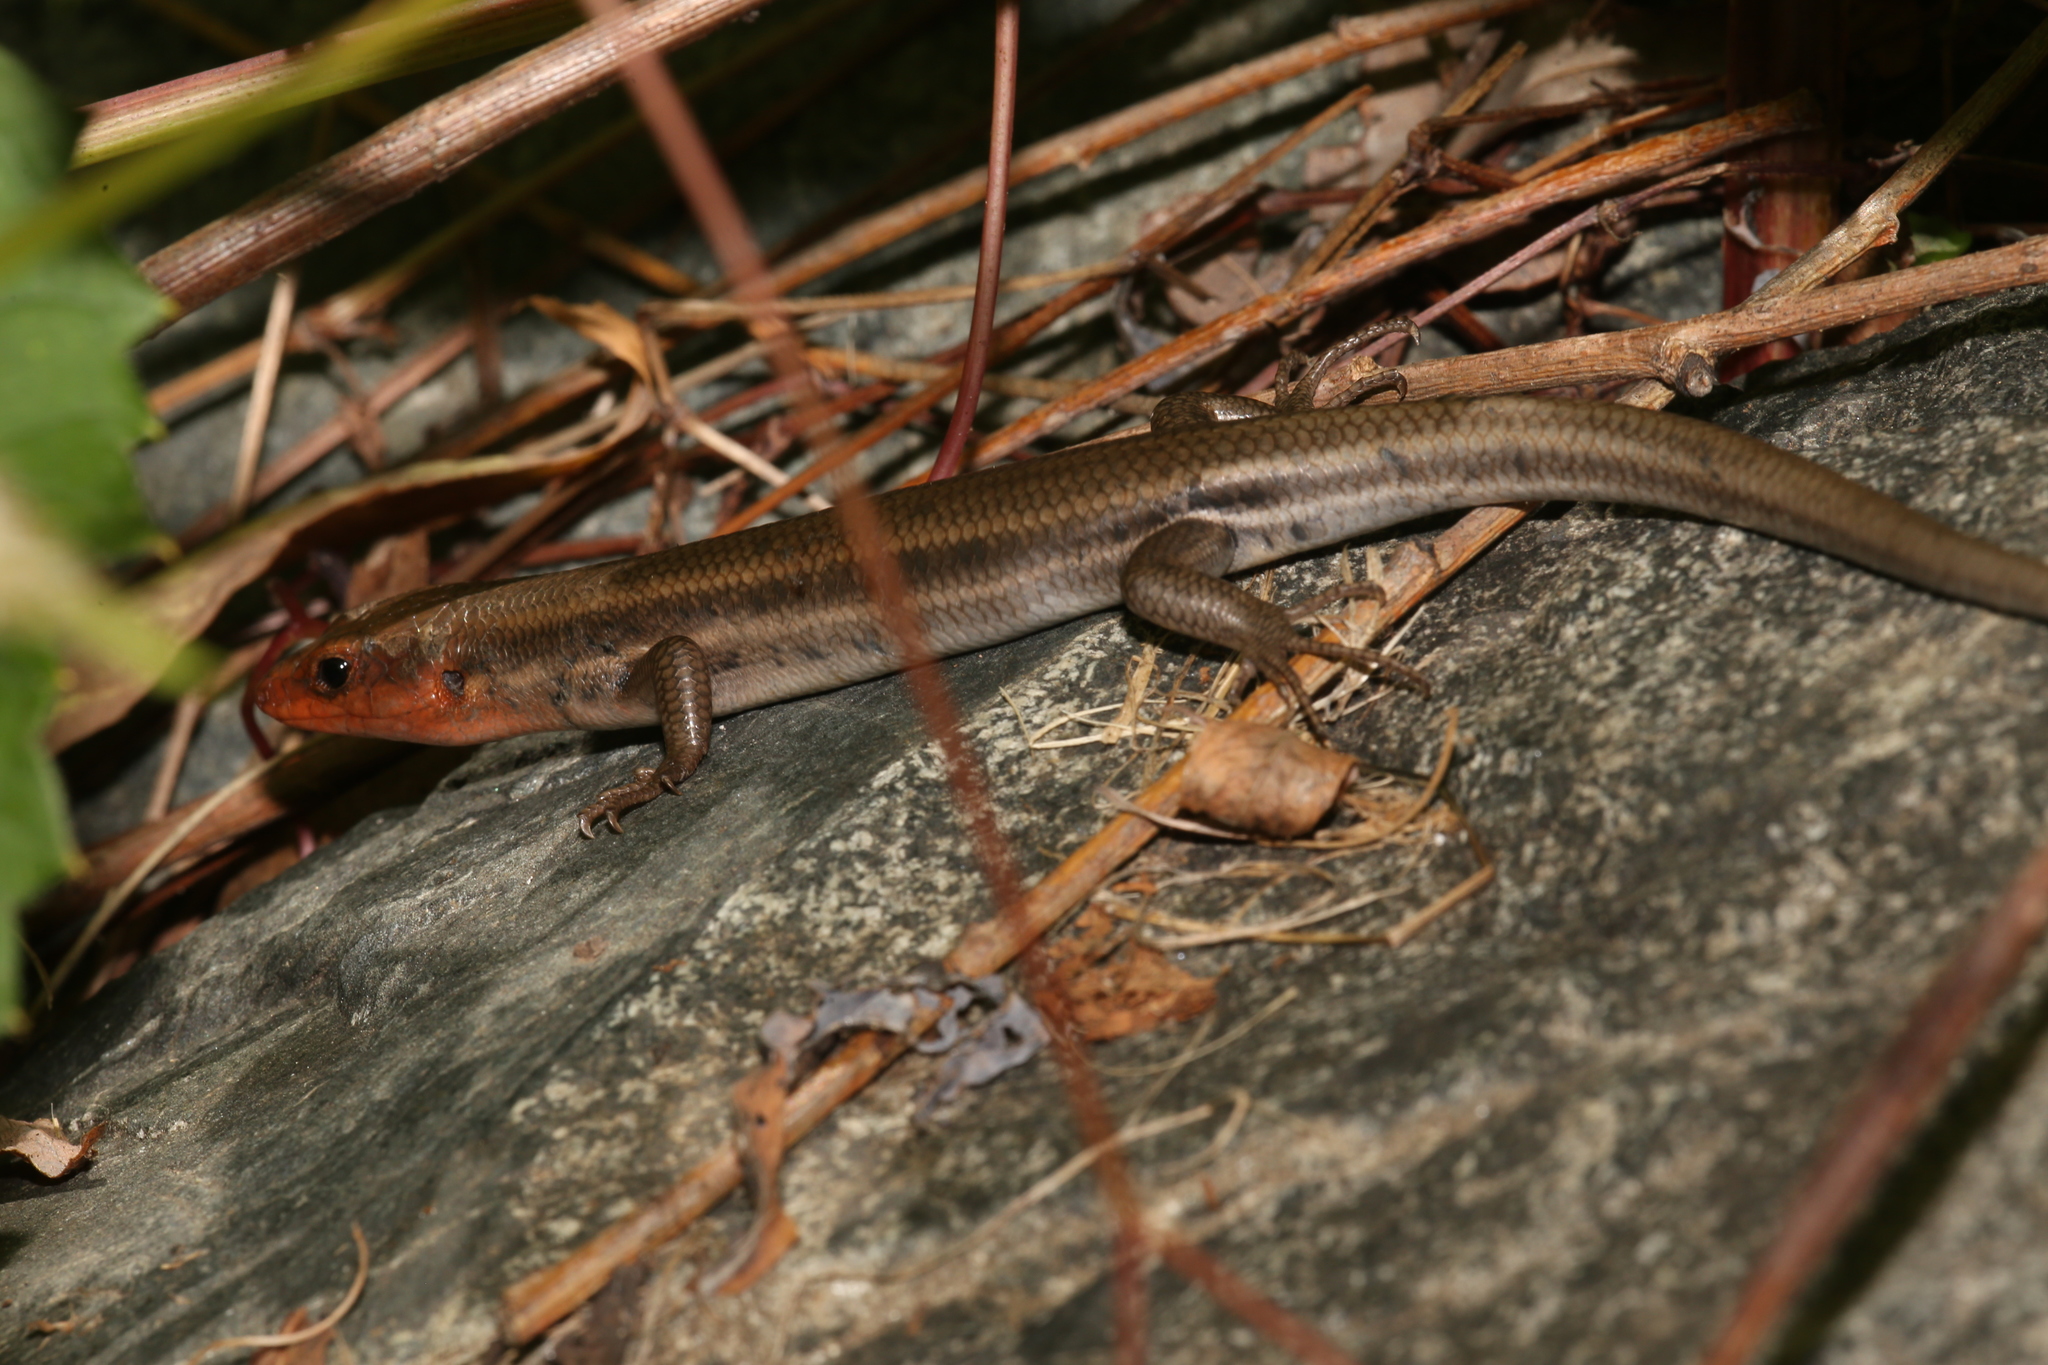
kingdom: Animalia
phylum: Chordata
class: Squamata
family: Scincidae
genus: Plestiodon
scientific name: Plestiodon fasciatus
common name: Five-lined skink
